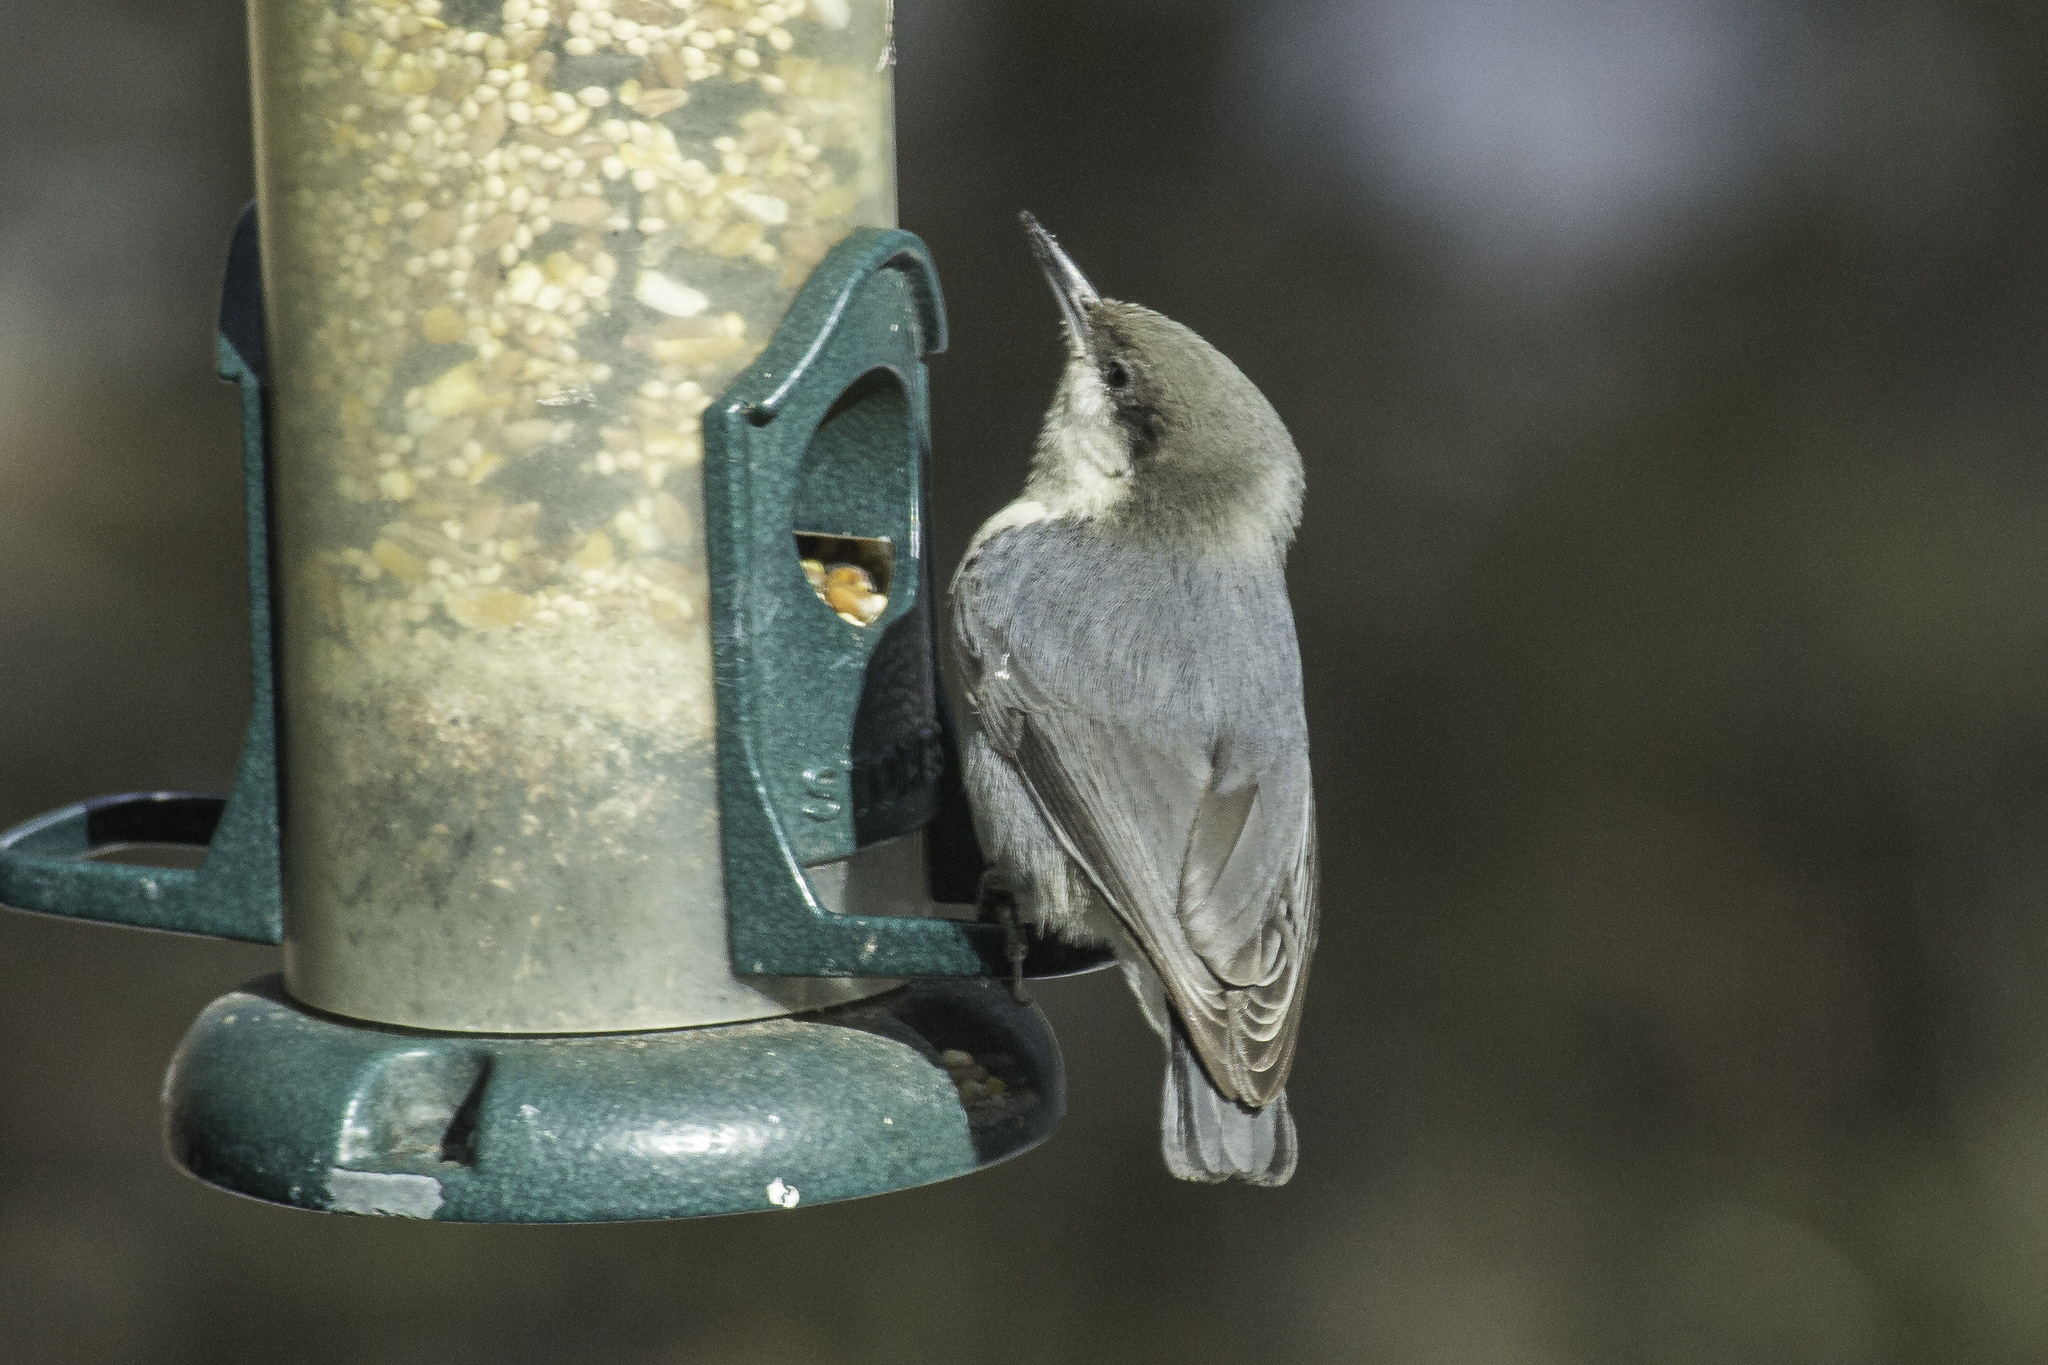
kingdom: Animalia
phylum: Chordata
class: Aves
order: Passeriformes
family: Sittidae
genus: Sitta
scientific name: Sitta pygmaea
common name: Pygmy nuthatch
